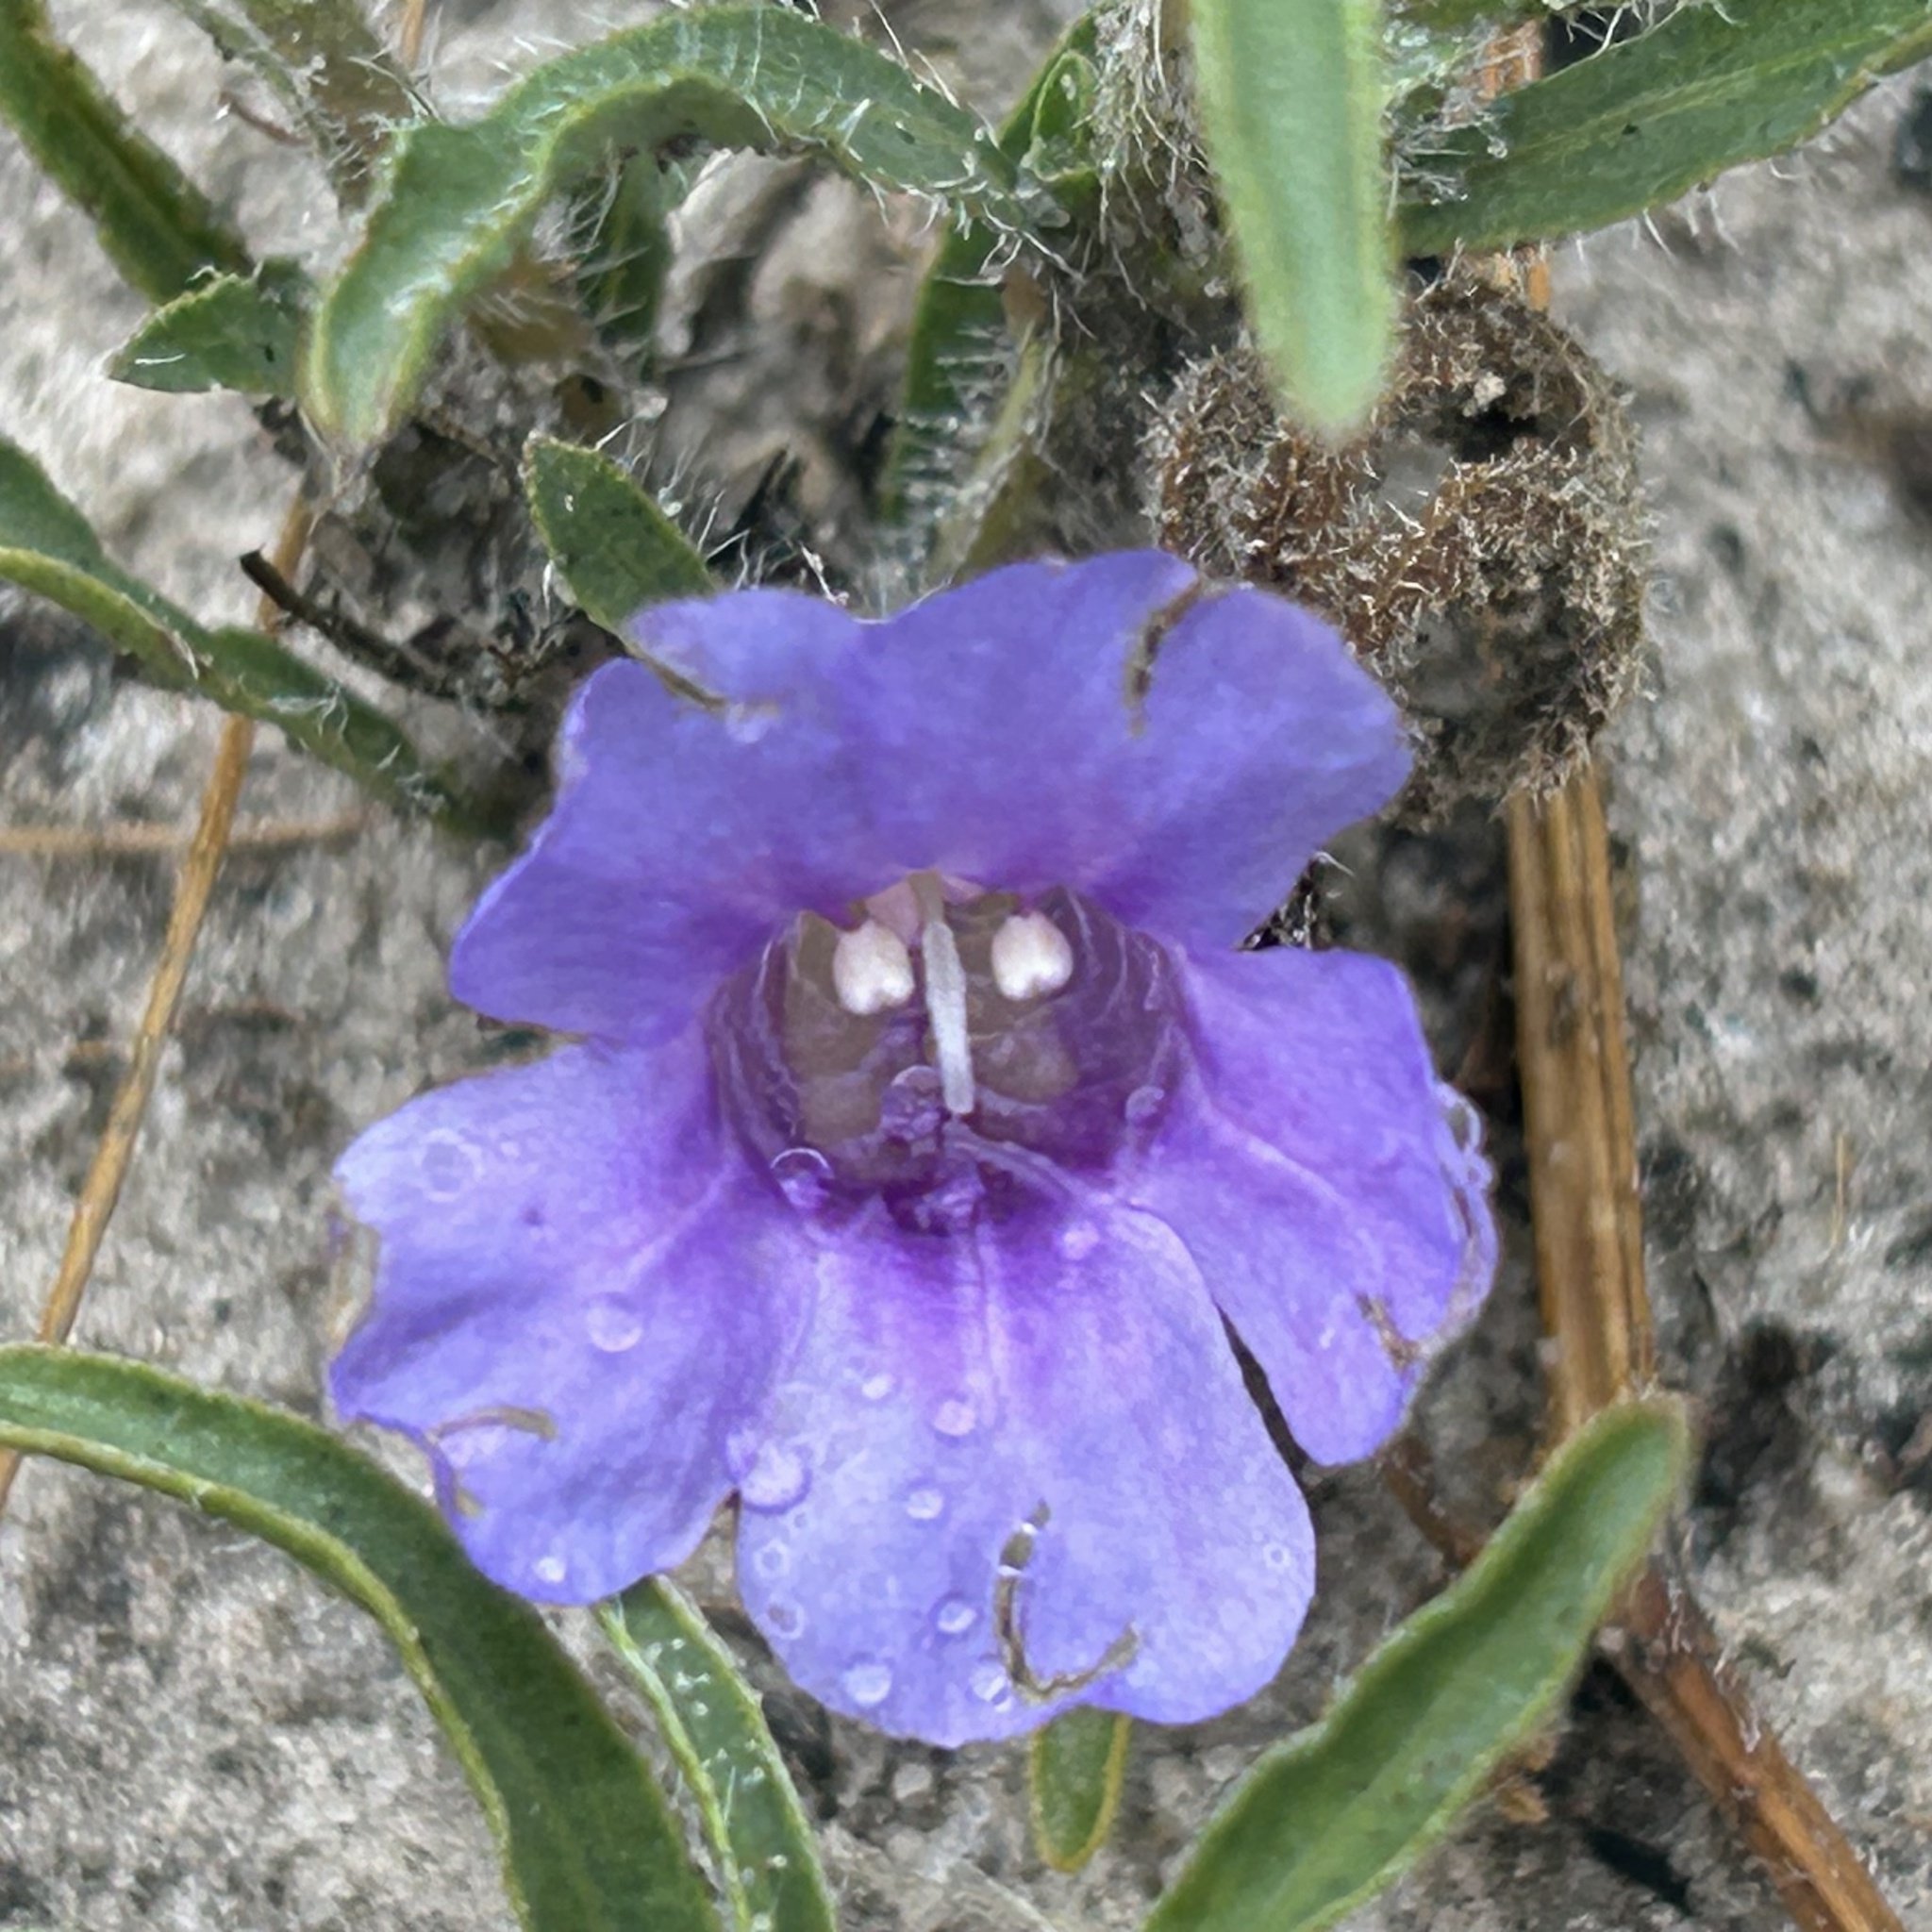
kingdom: Plantae
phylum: Tracheophyta
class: Magnoliopsida
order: Lamiales
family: Acanthaceae
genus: Ruelliopsis
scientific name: Ruelliopsis setosa
